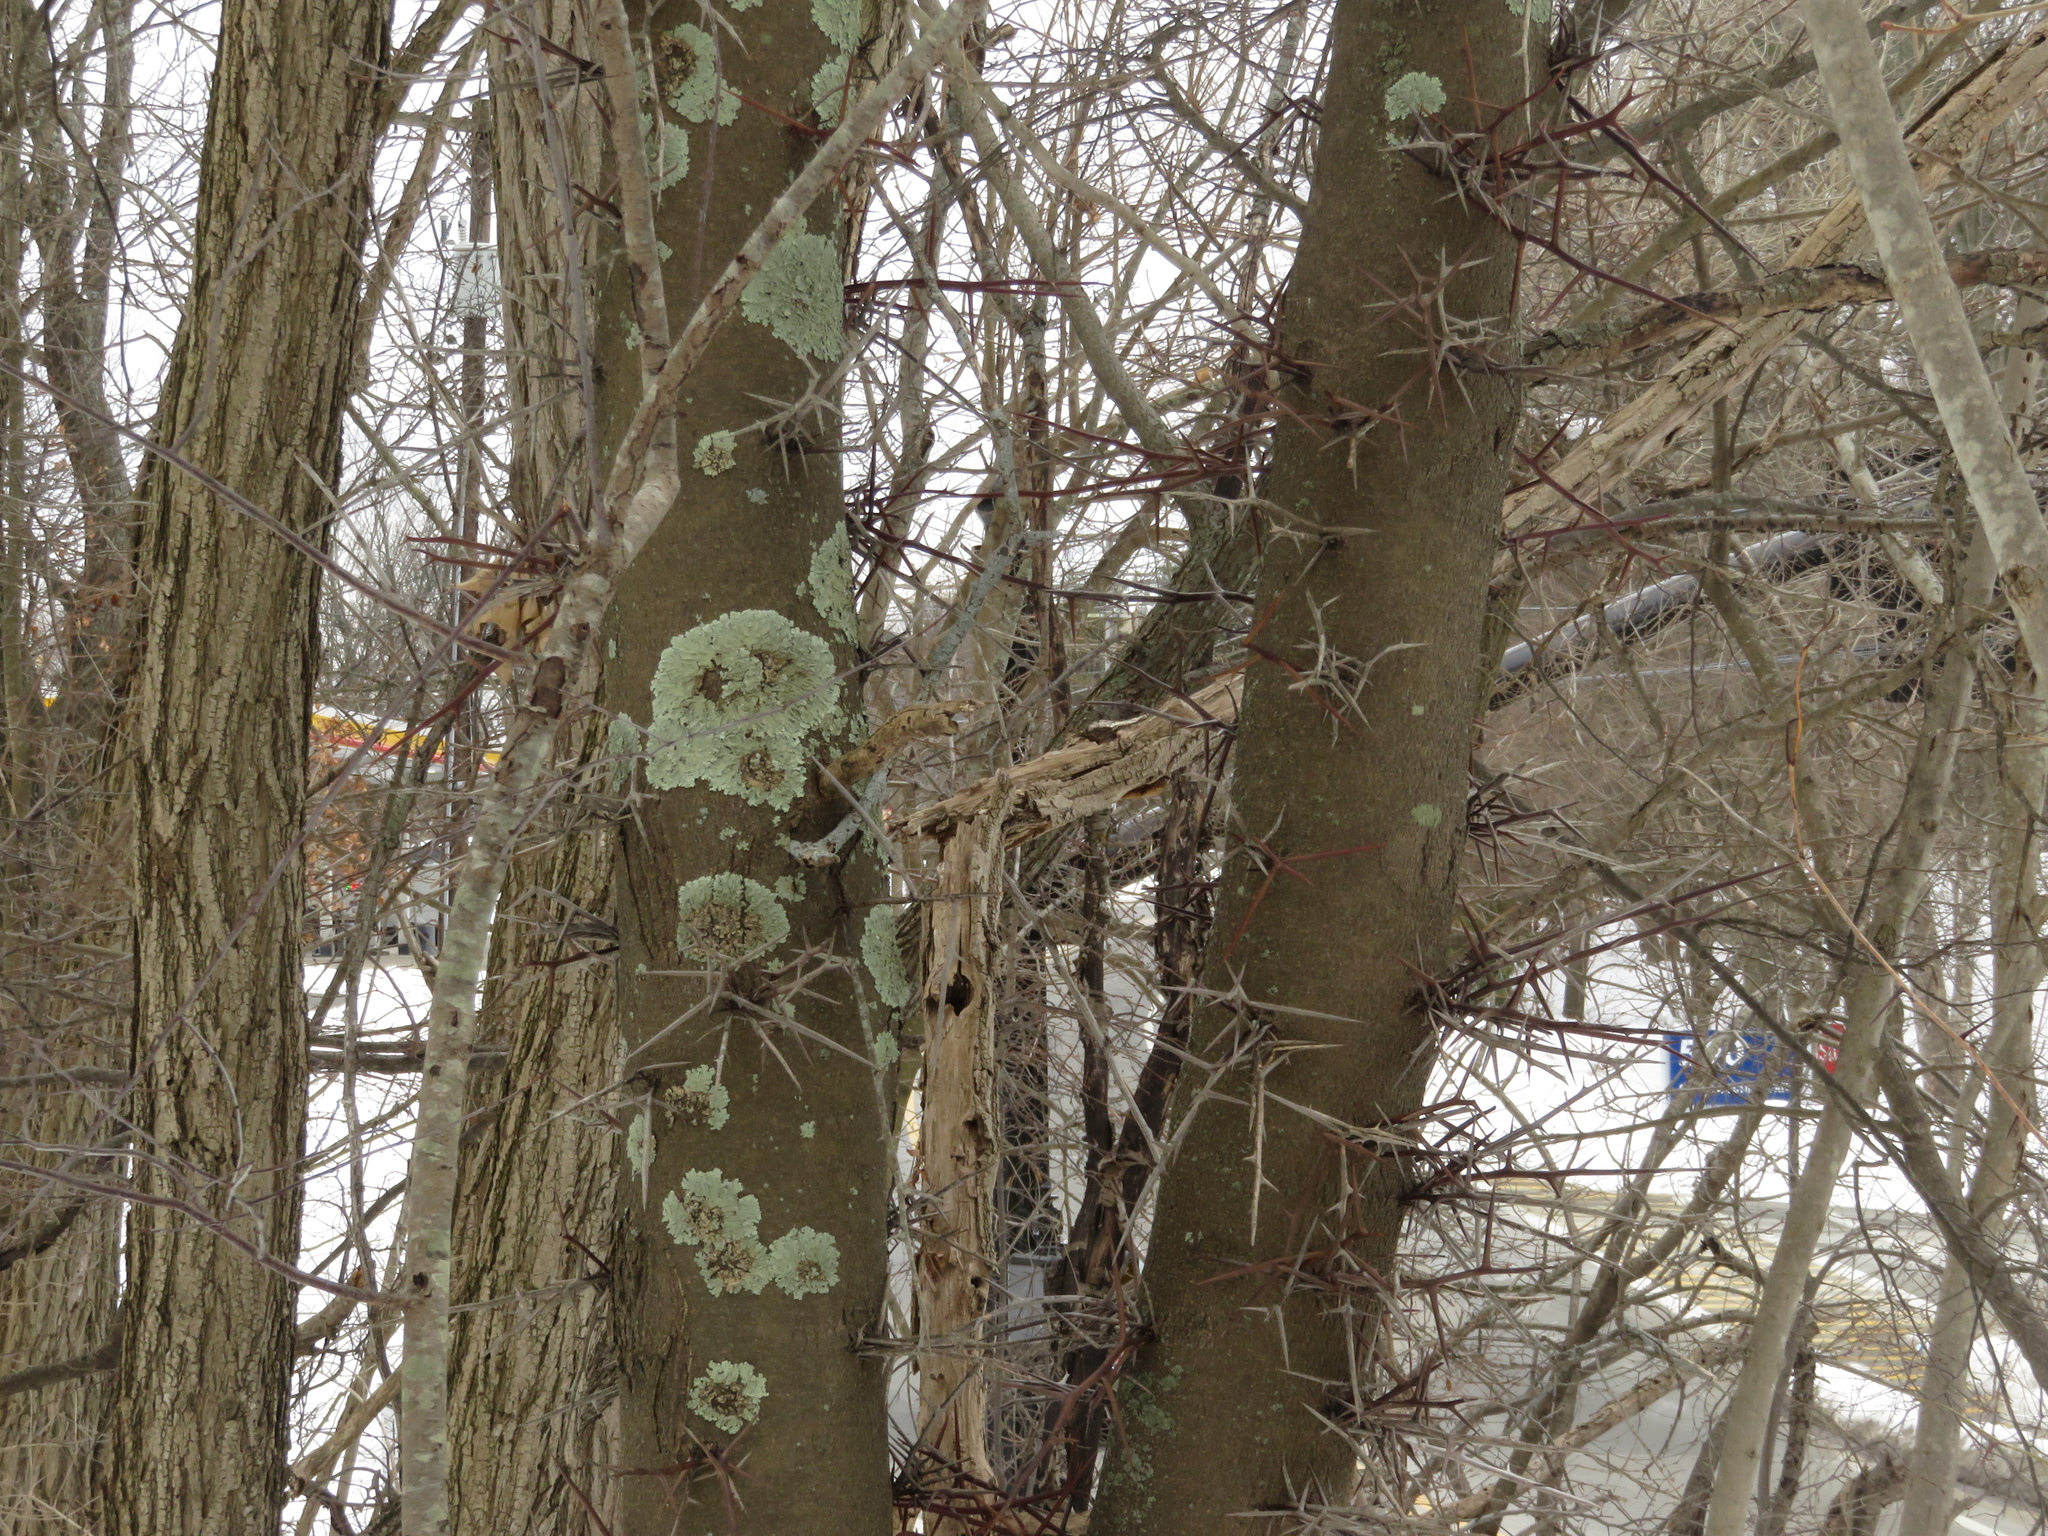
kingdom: Plantae
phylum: Tracheophyta
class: Magnoliopsida
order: Fabales
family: Fabaceae
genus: Gleditsia
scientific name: Gleditsia triacanthos
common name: Common honeylocust
